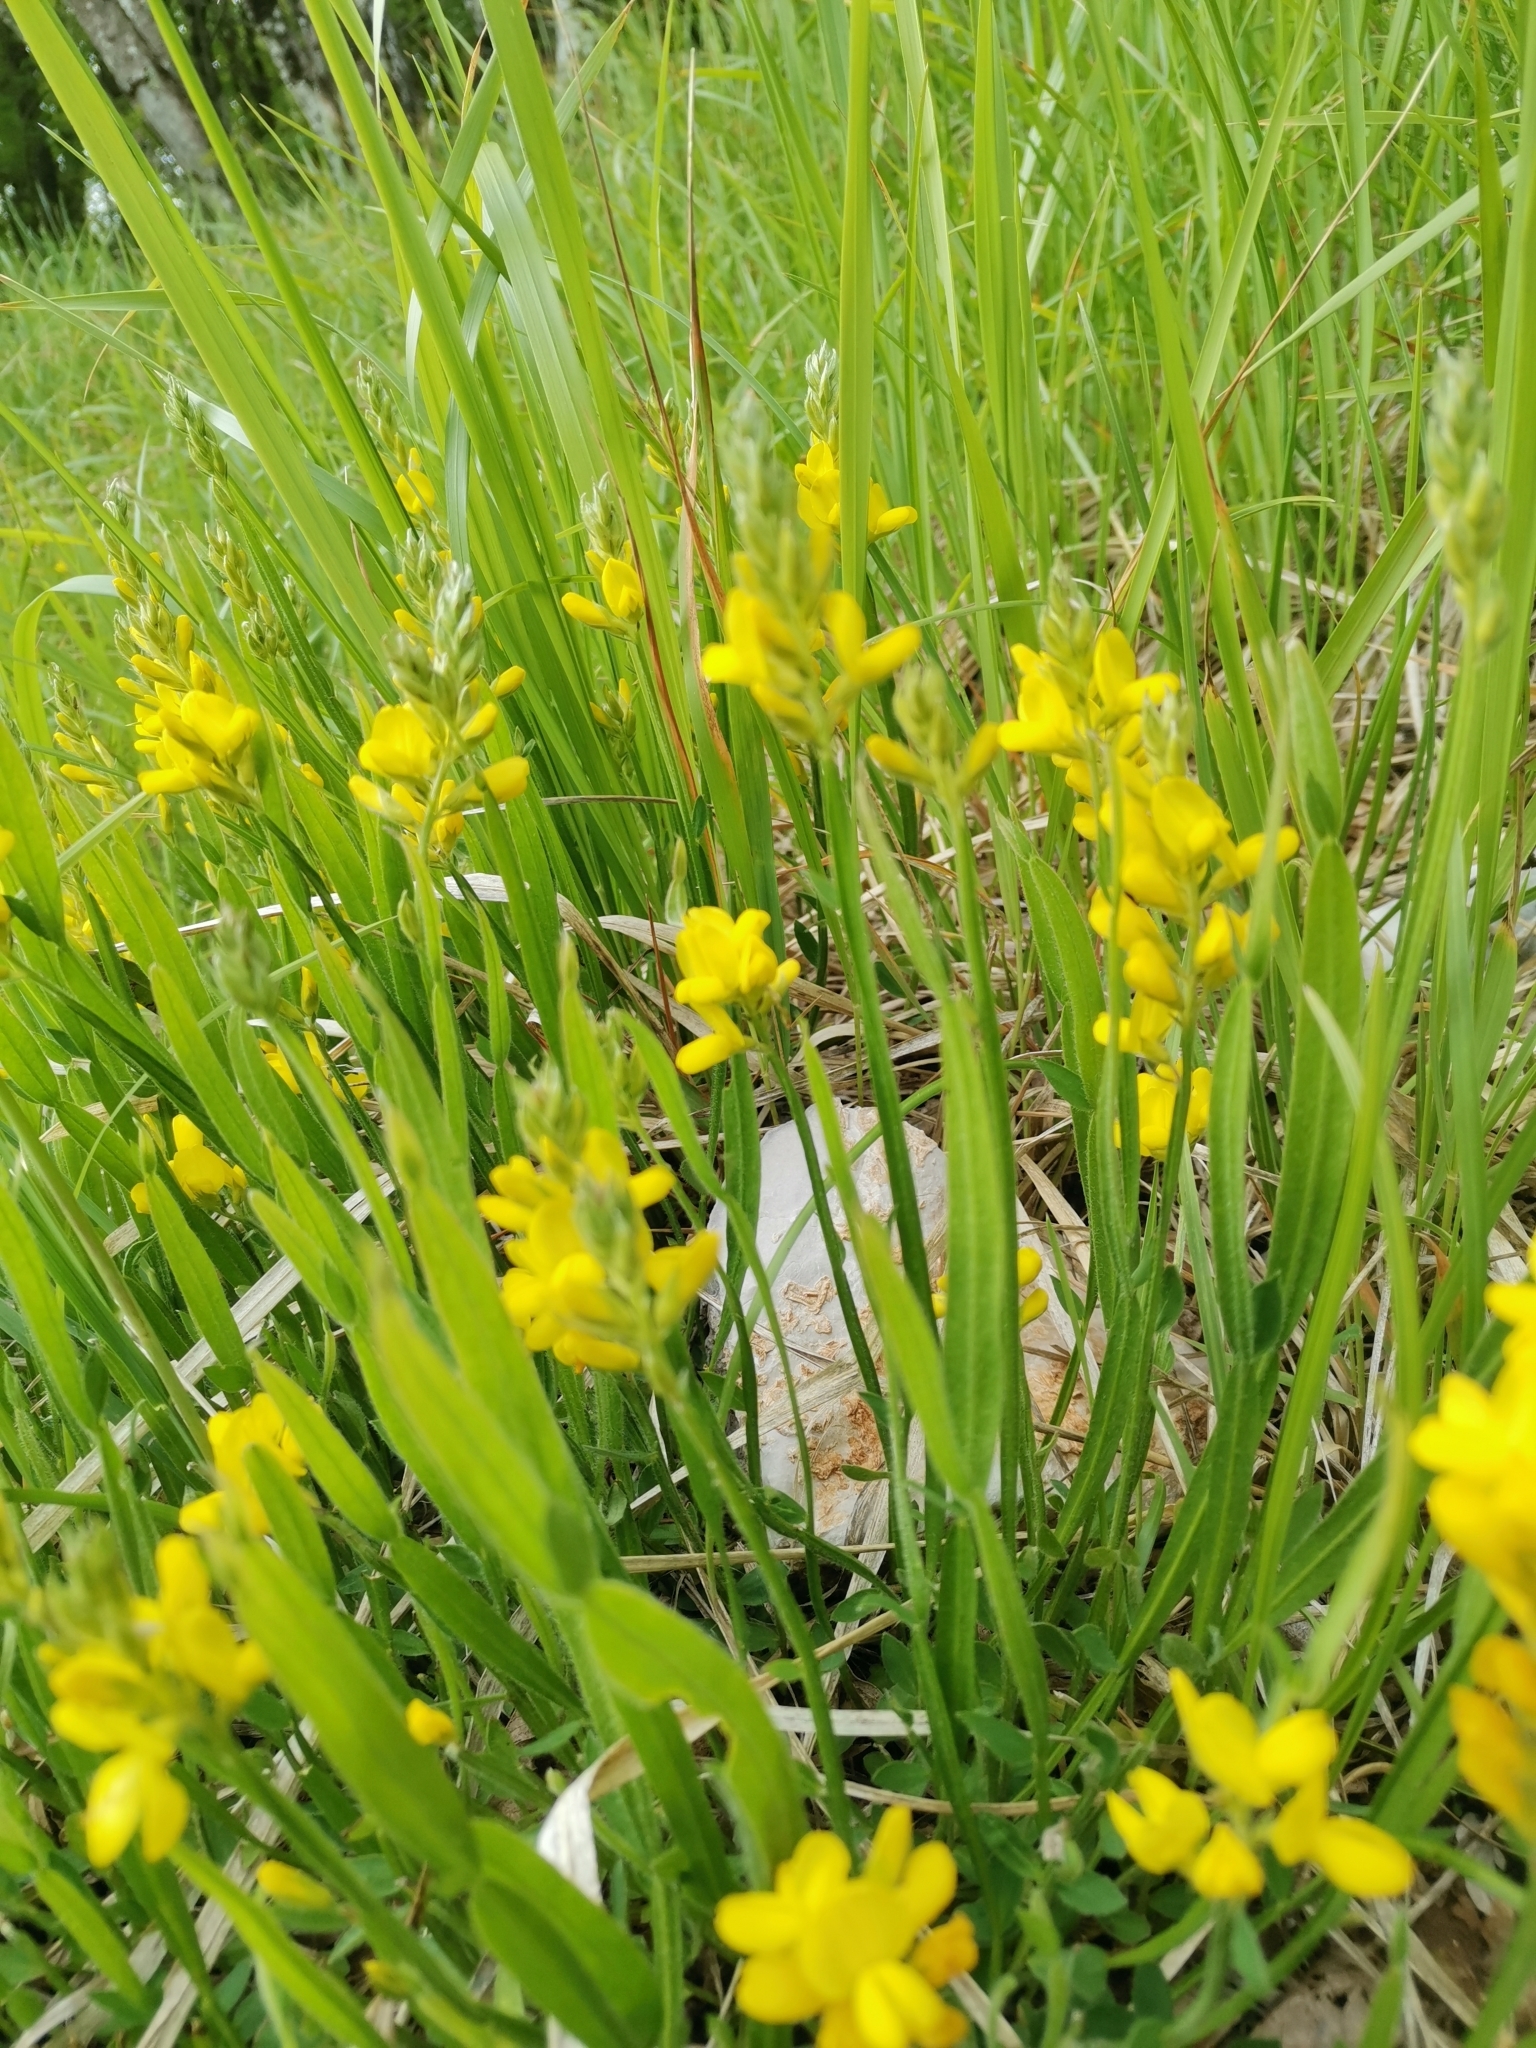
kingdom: Plantae
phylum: Tracheophyta
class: Magnoliopsida
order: Fabales
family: Fabaceae
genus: Genista
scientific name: Genista sagittalis
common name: Winged greenweed
